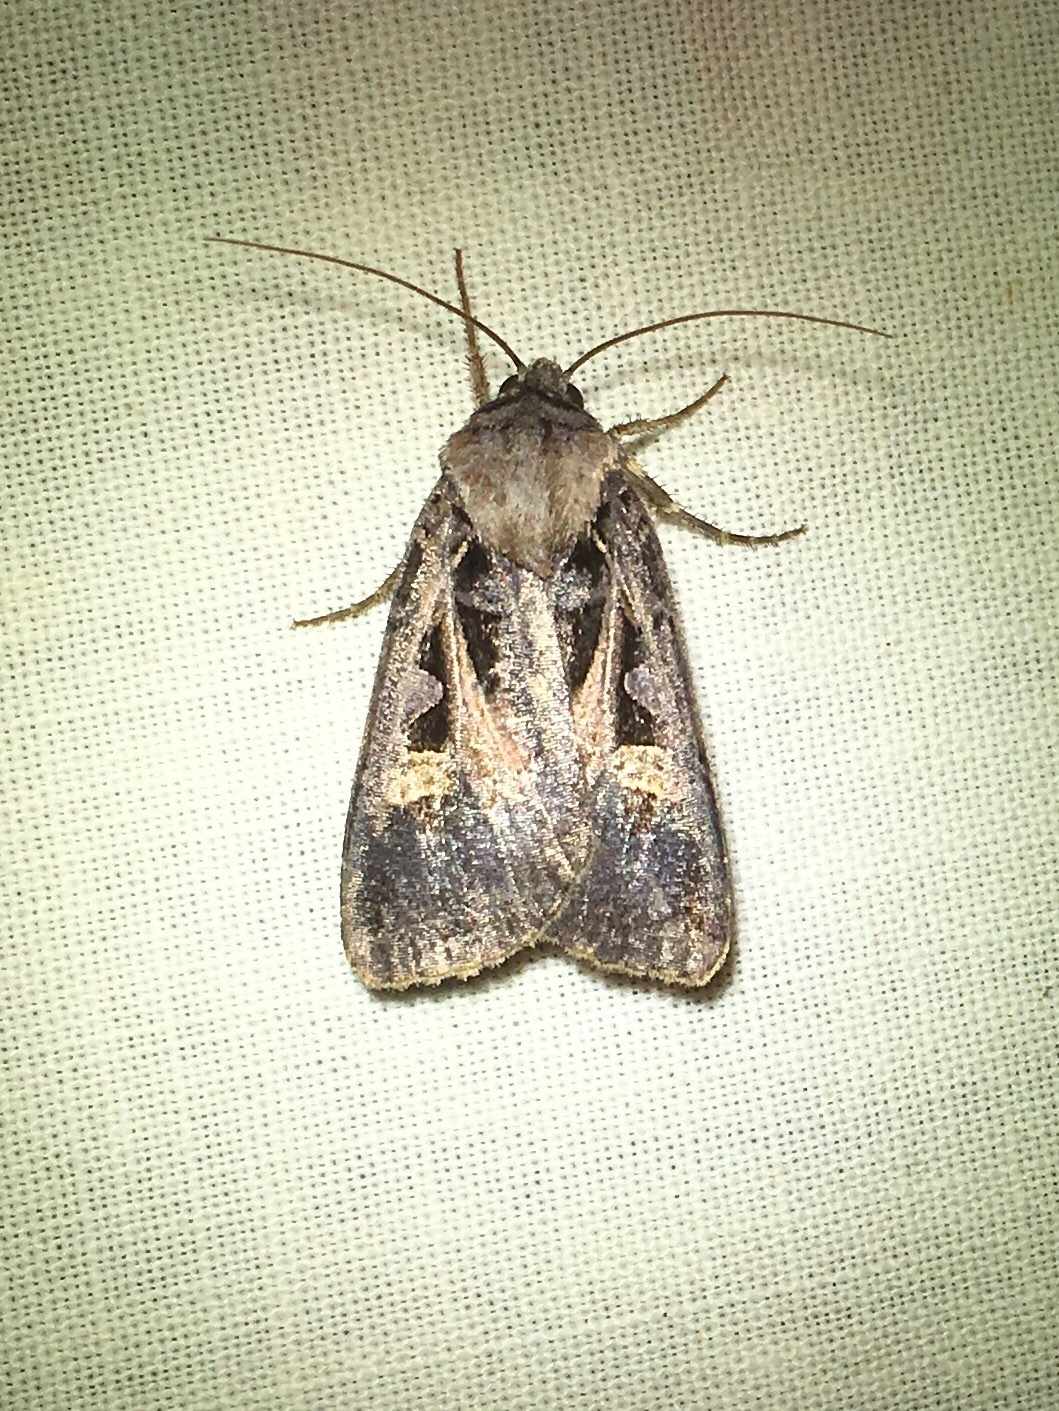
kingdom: Animalia
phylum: Arthropoda
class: Insecta
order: Lepidoptera
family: Noctuidae
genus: Feltia
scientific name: Feltia herilis
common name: Master's dart
